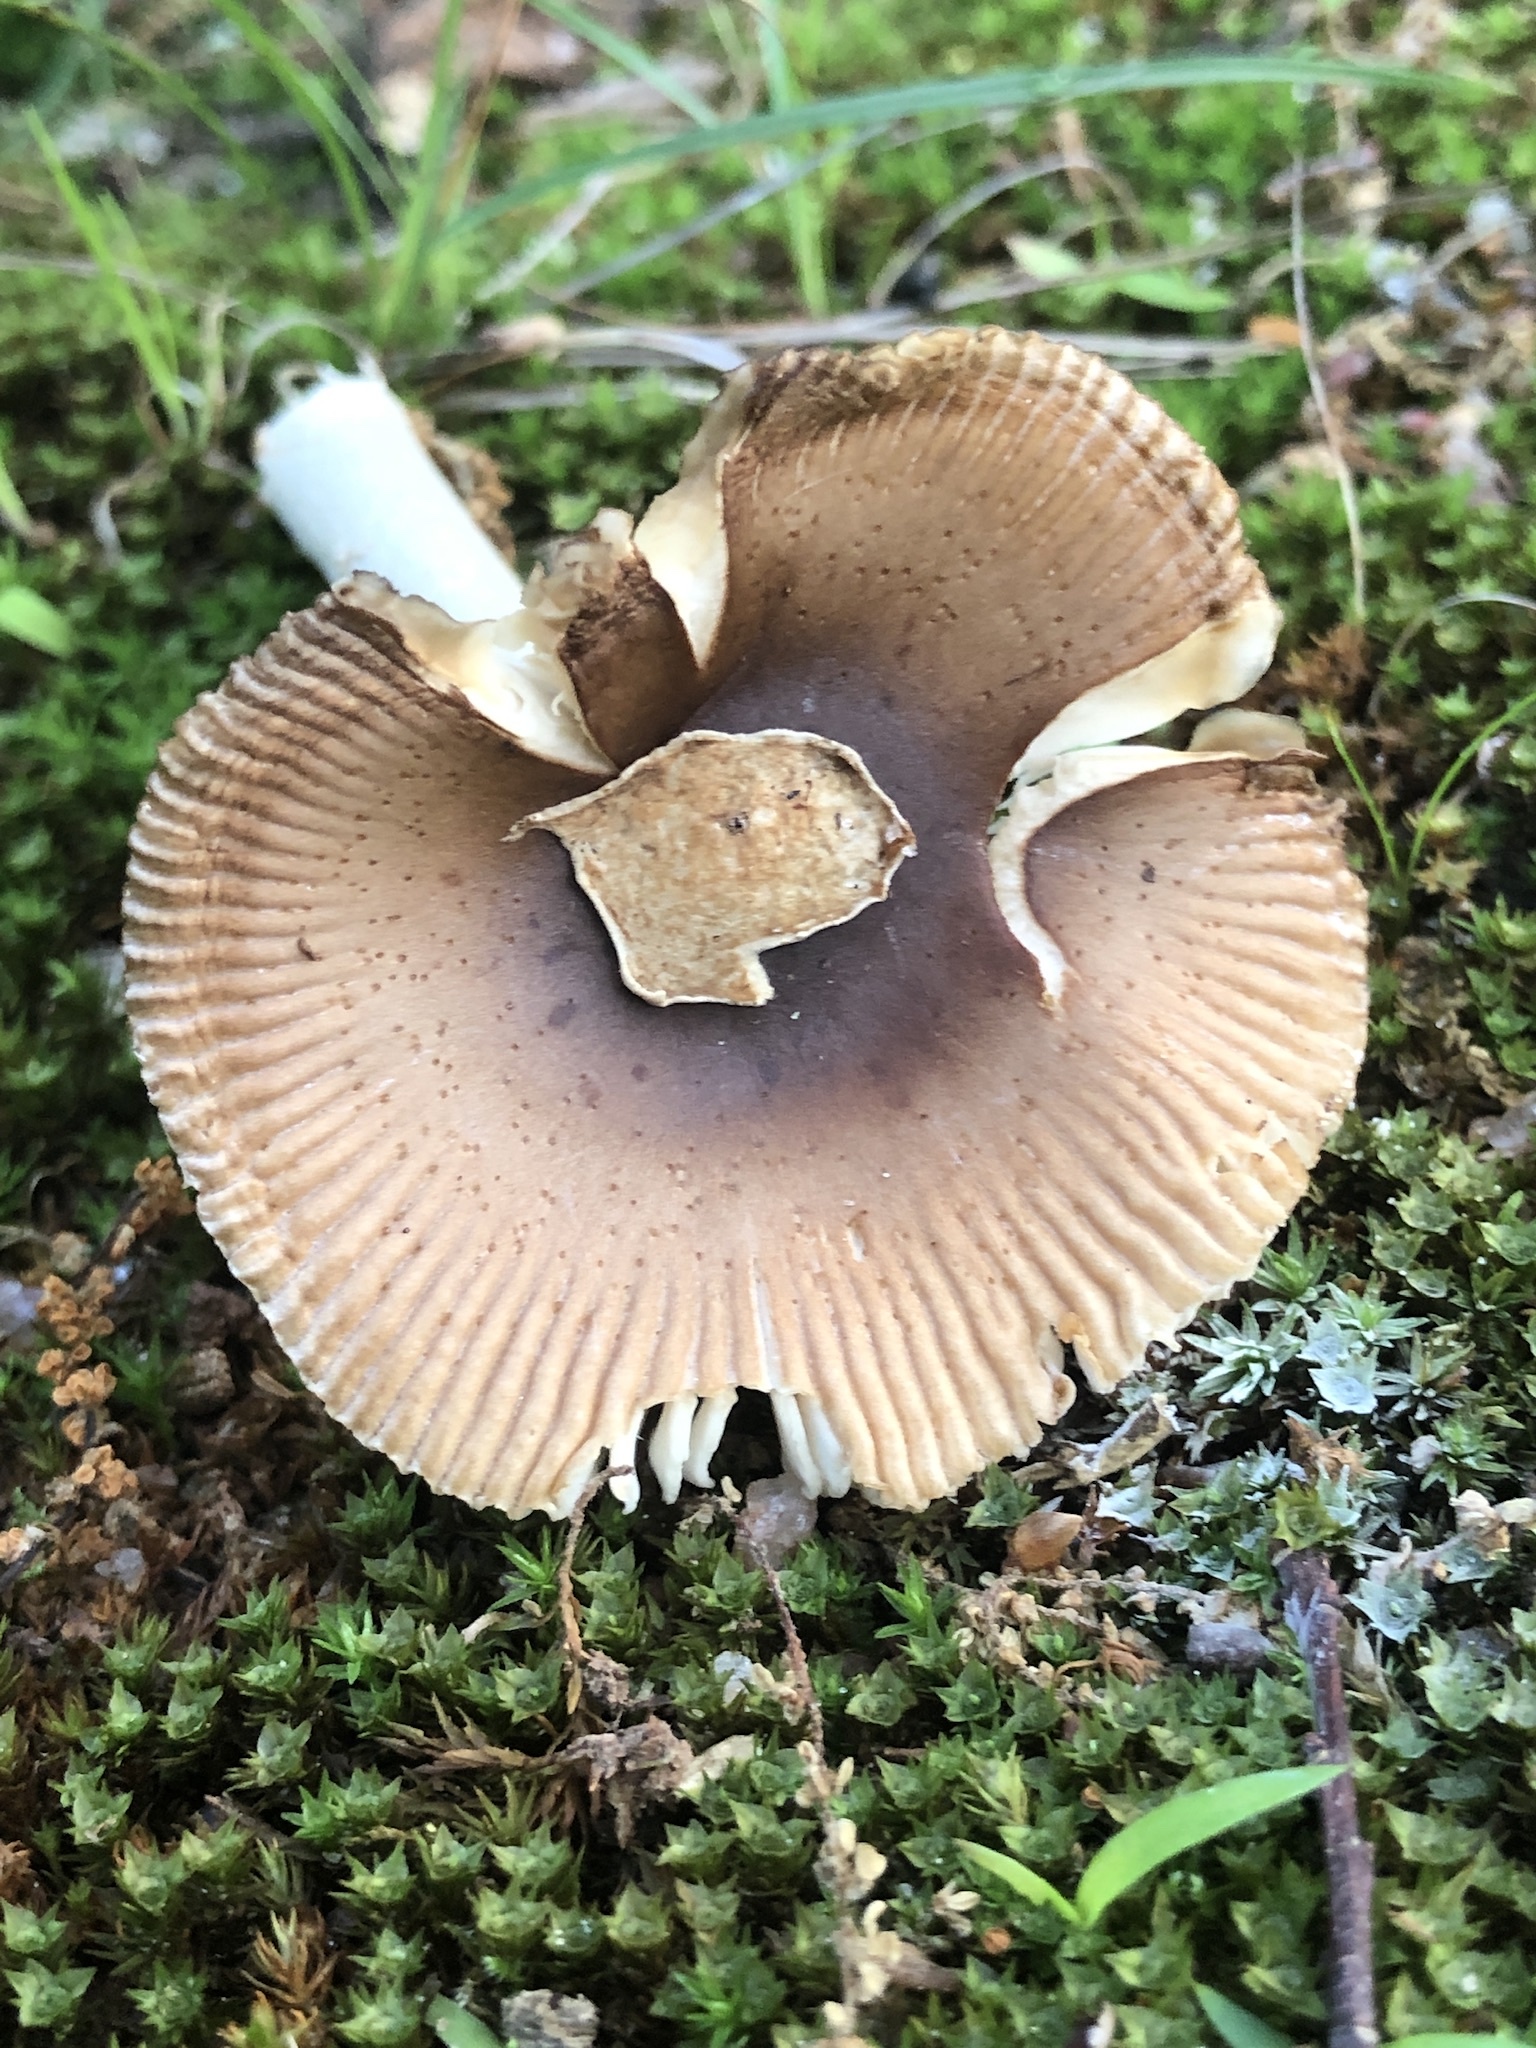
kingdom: Fungi
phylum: Basidiomycota
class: Agaricomycetes
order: Agaricales
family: Amanitaceae
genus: Amanita
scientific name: Amanita fulva
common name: Tawny grisette
